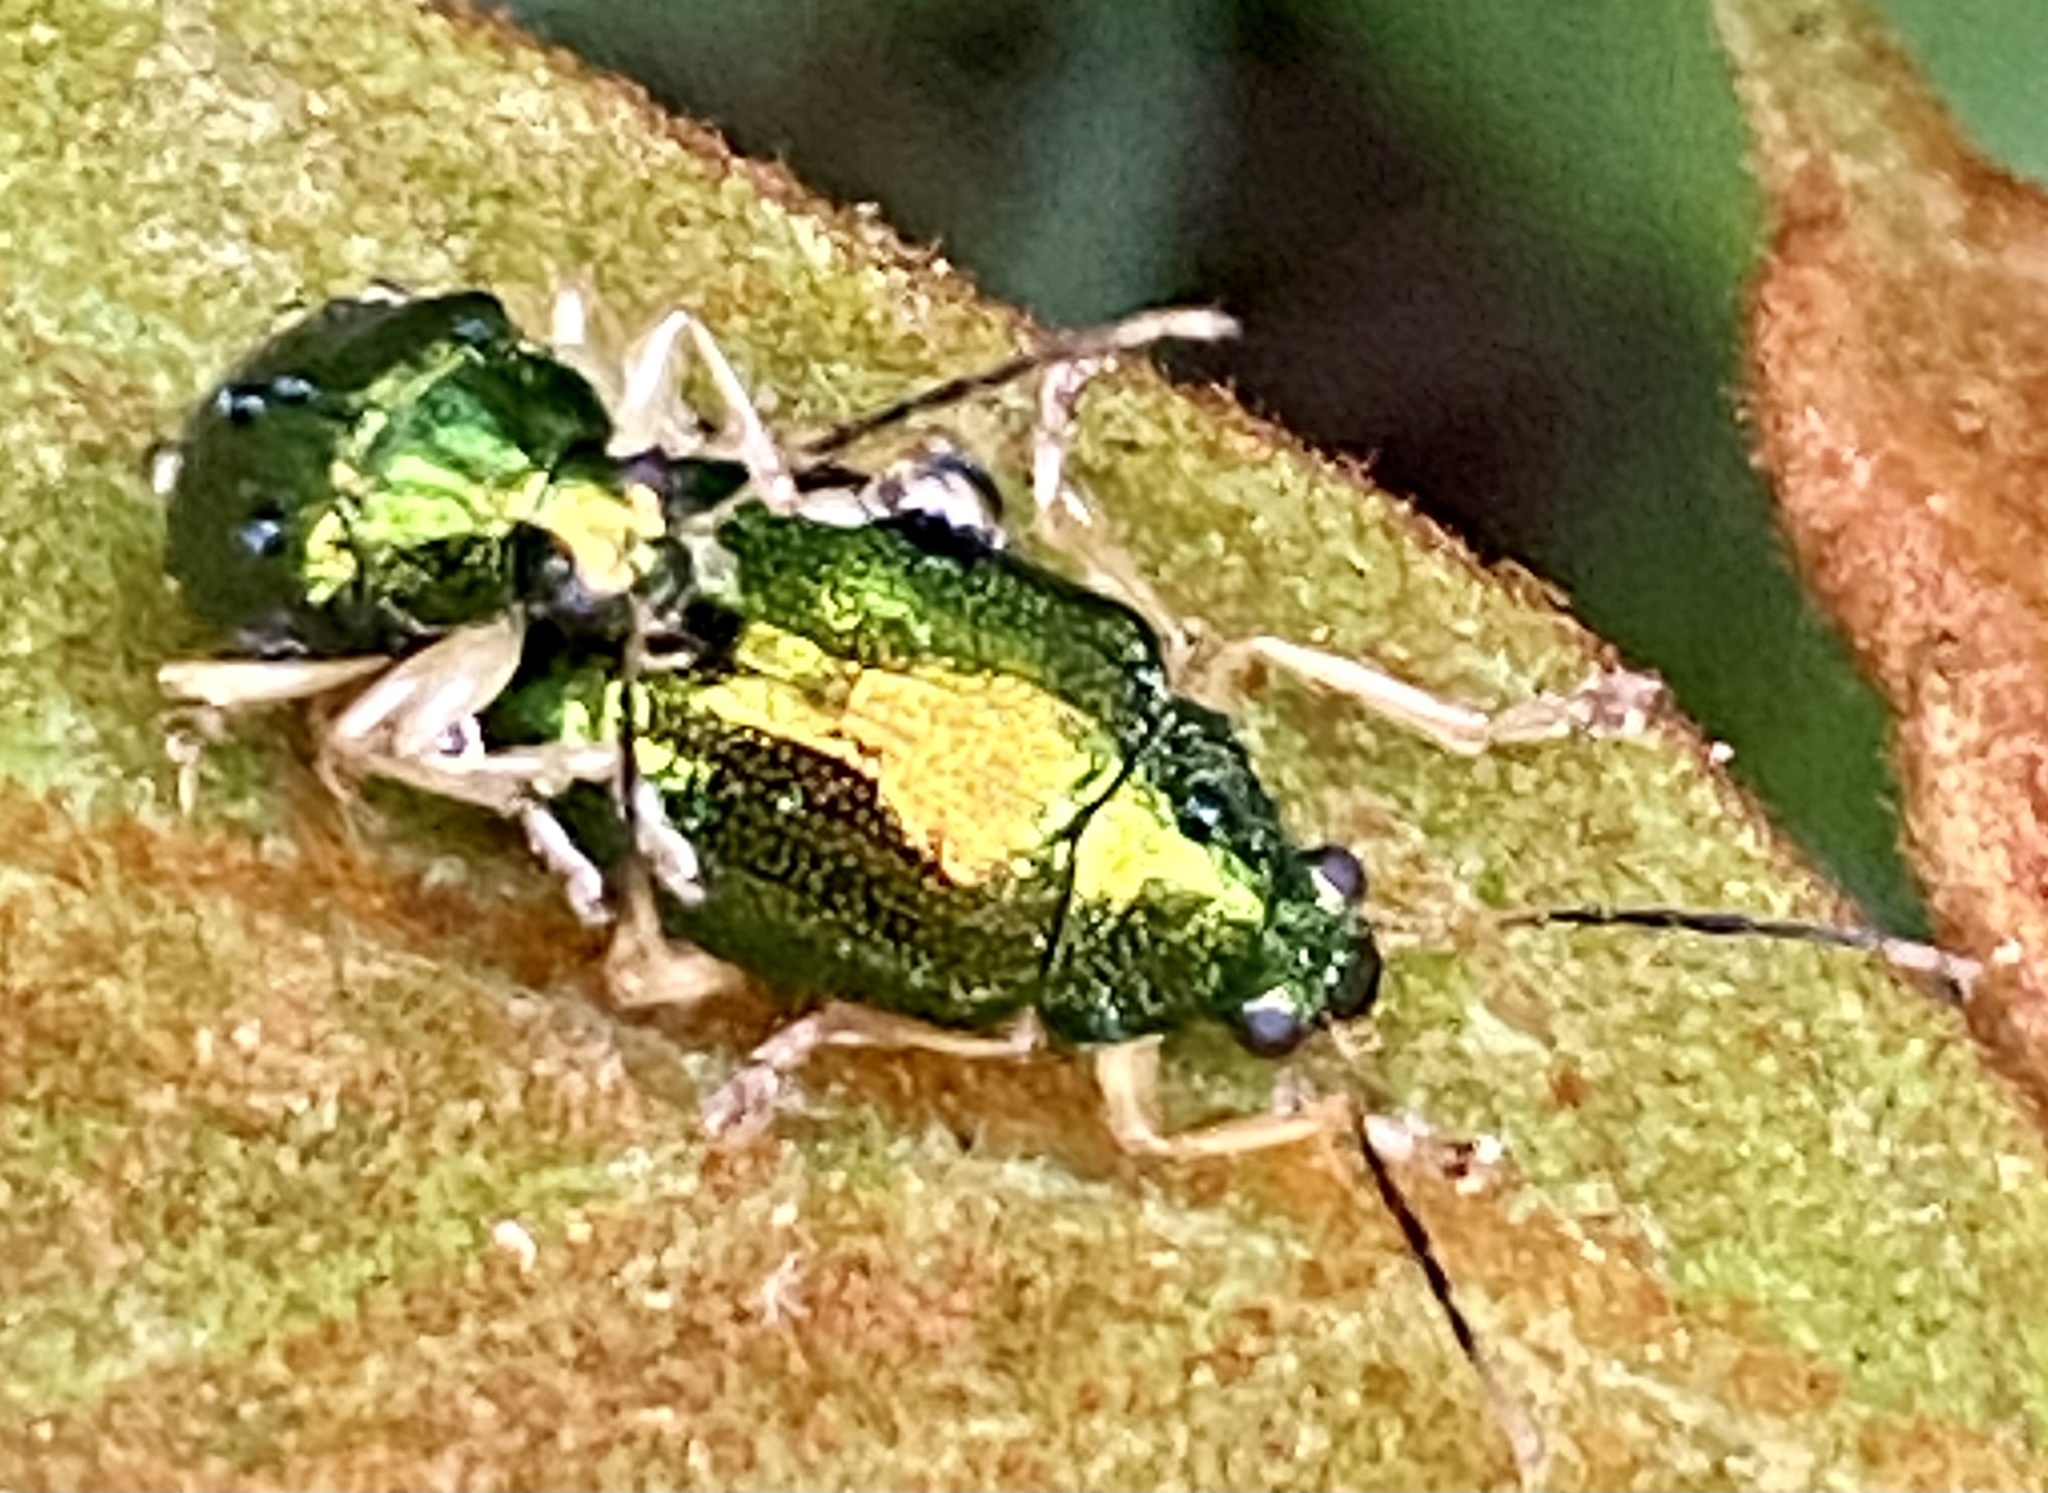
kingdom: Animalia
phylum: Arthropoda
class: Insecta
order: Coleoptera
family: Chrysomelidae
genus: Colaspis
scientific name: Colaspis
